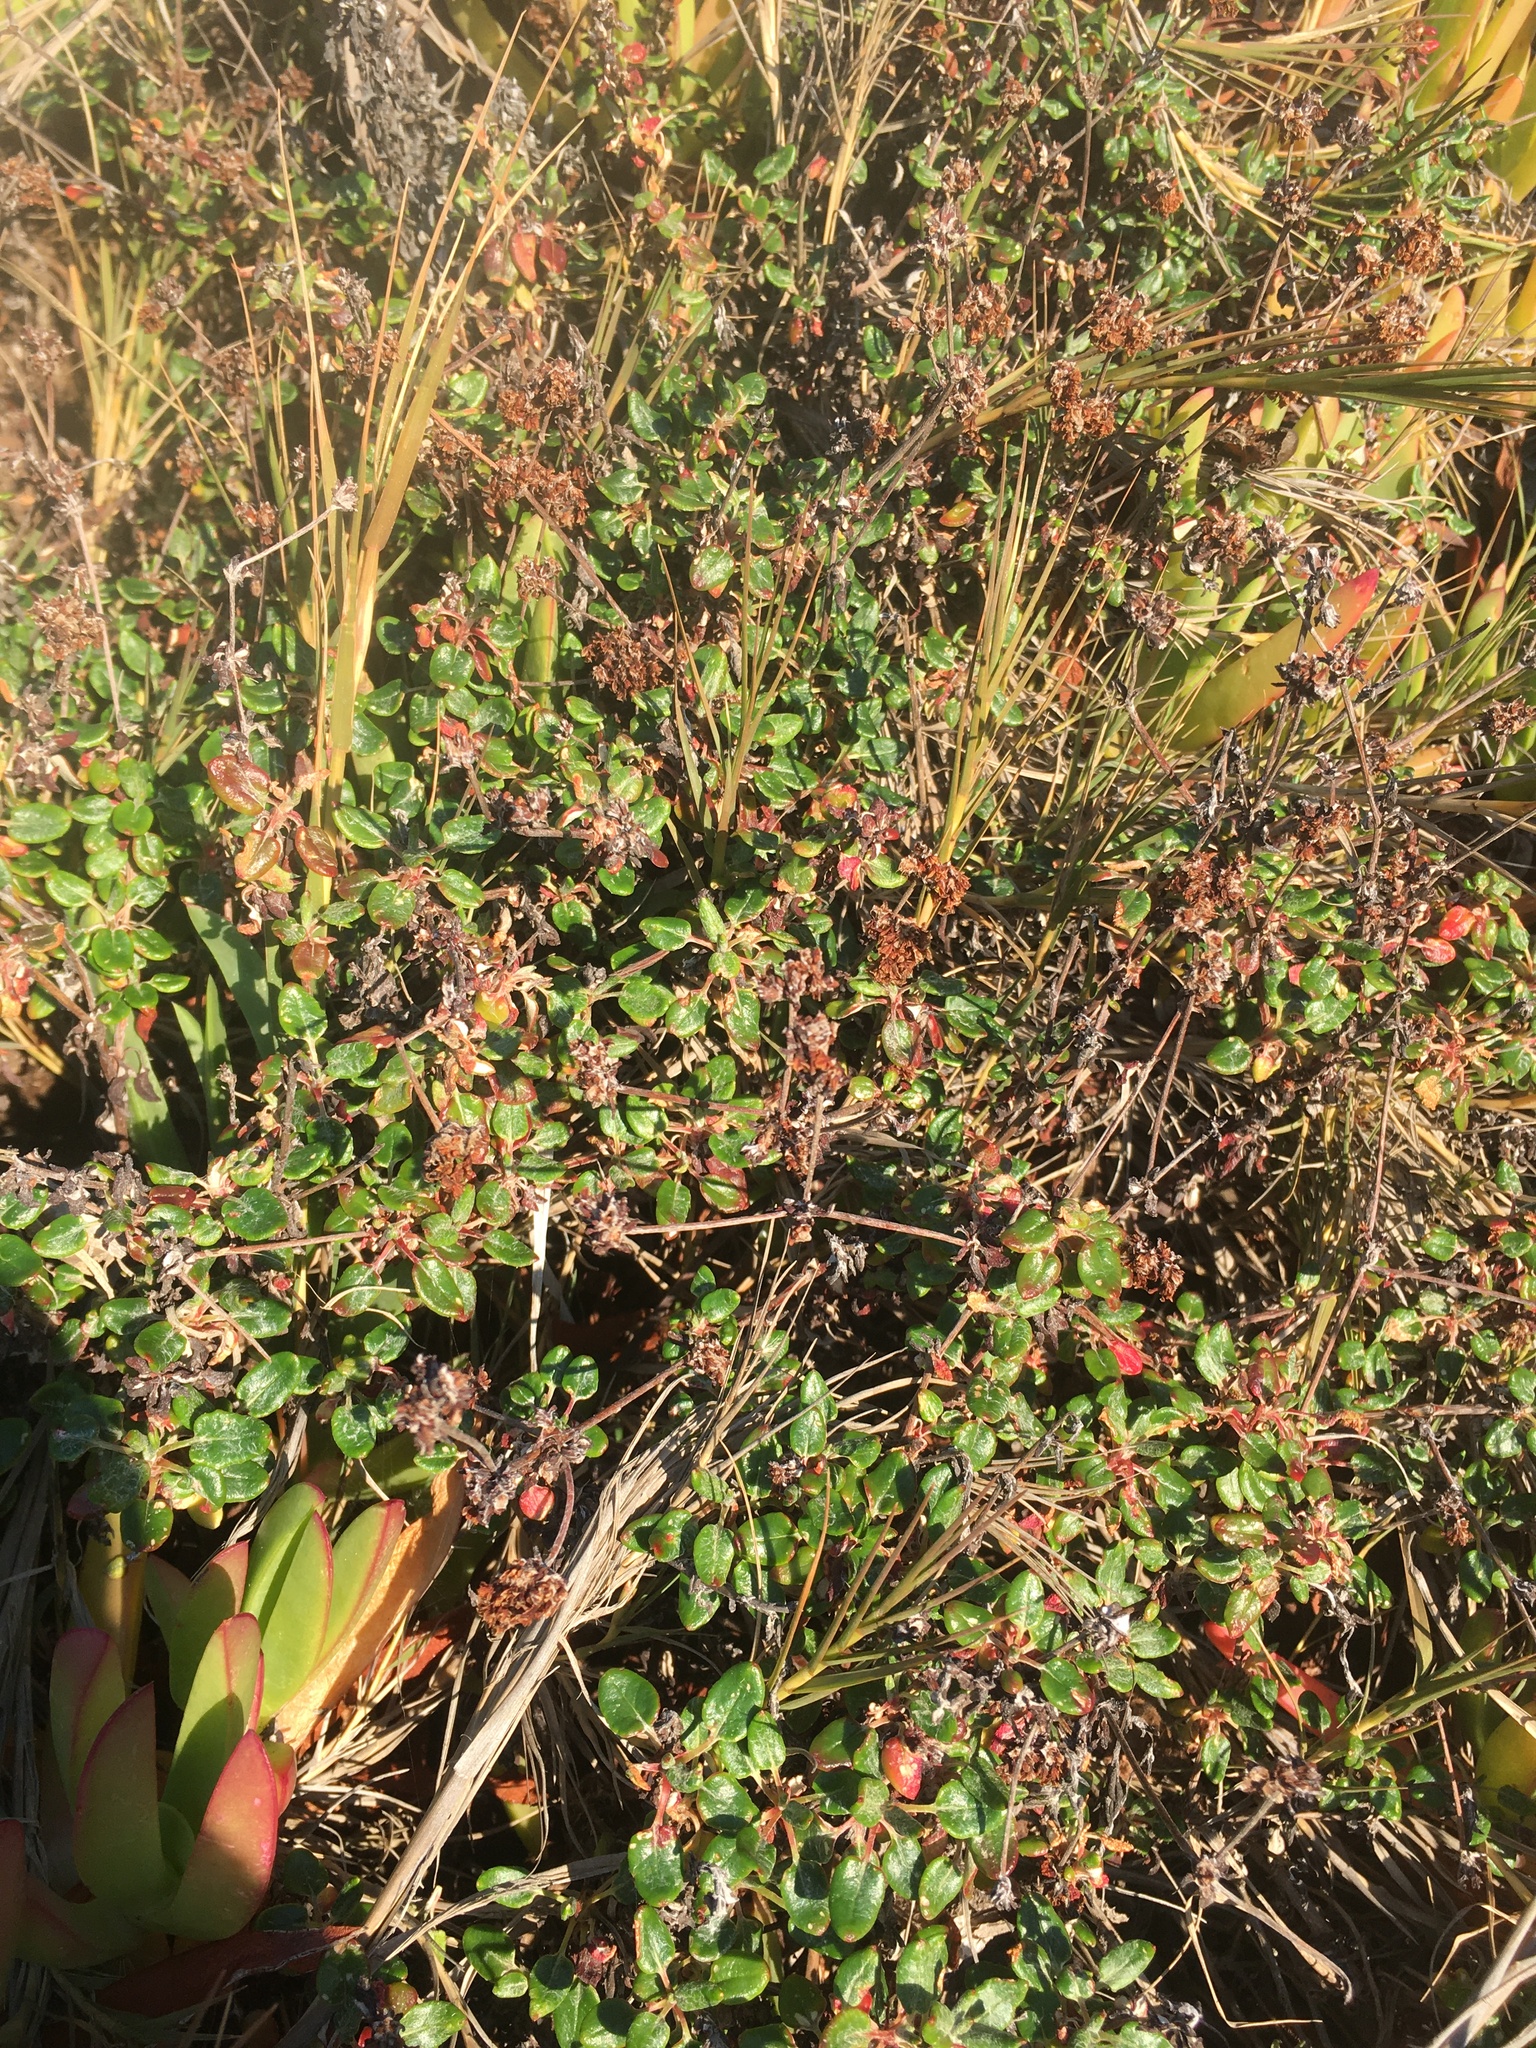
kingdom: Plantae
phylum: Tracheophyta
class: Magnoliopsida
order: Caryophyllales
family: Polygonaceae
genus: Eriogonum
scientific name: Eriogonum parvifolium
